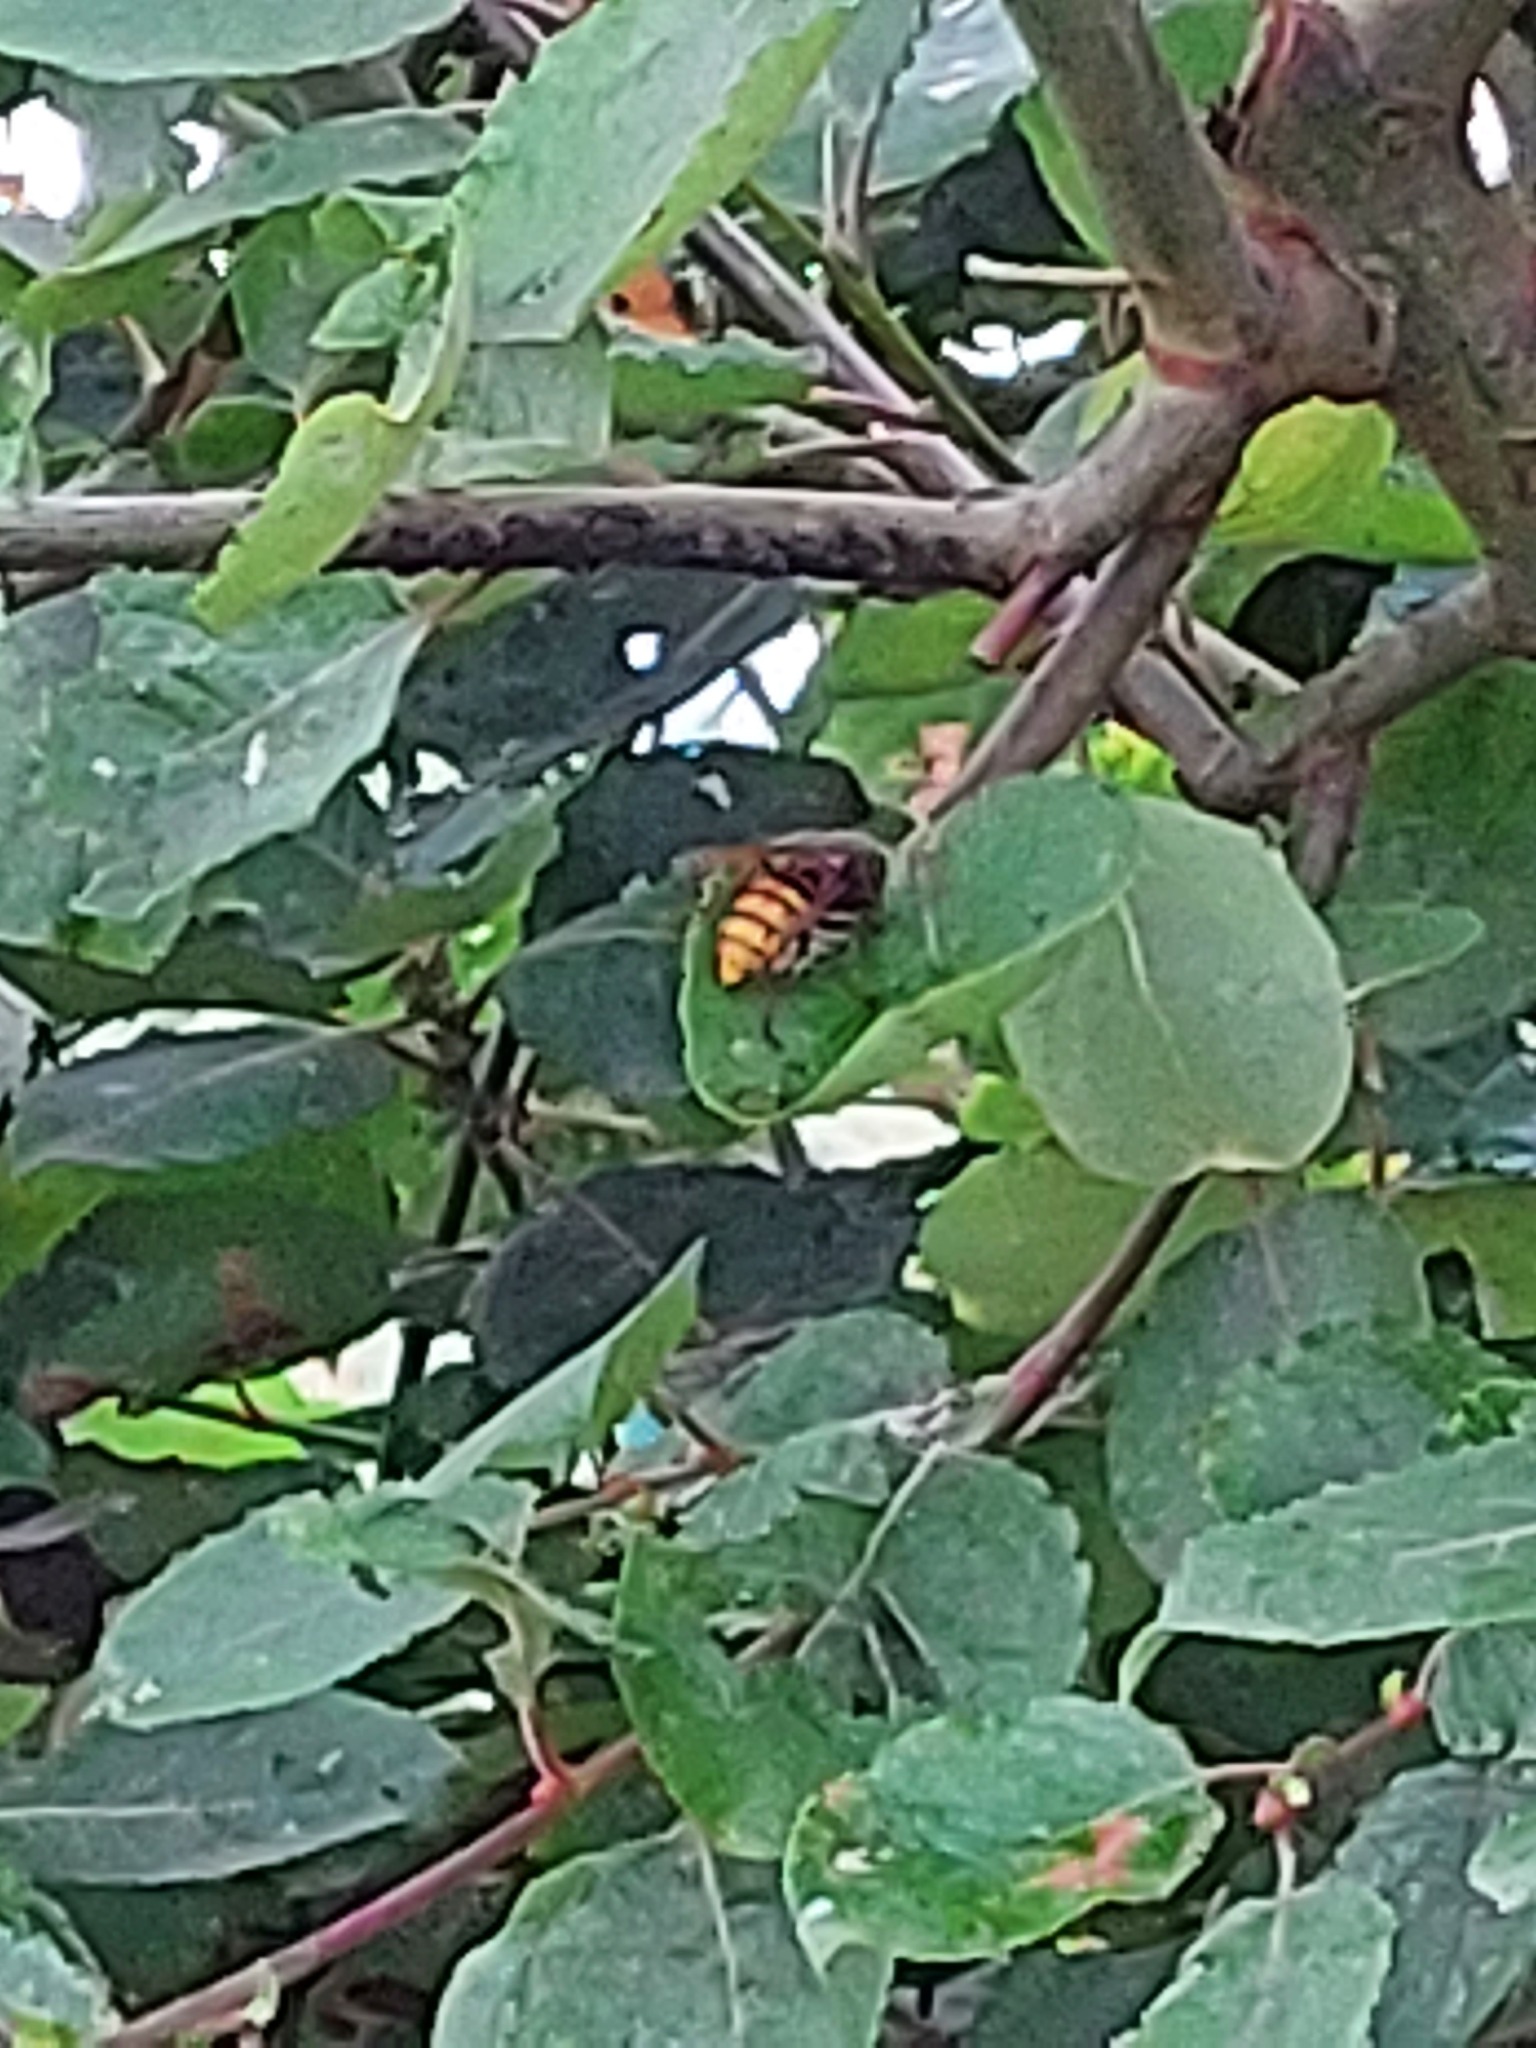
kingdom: Animalia
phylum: Arthropoda
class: Insecta
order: Hymenoptera
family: Vespidae
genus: Vespa
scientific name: Vespa crabro
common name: Hornet
